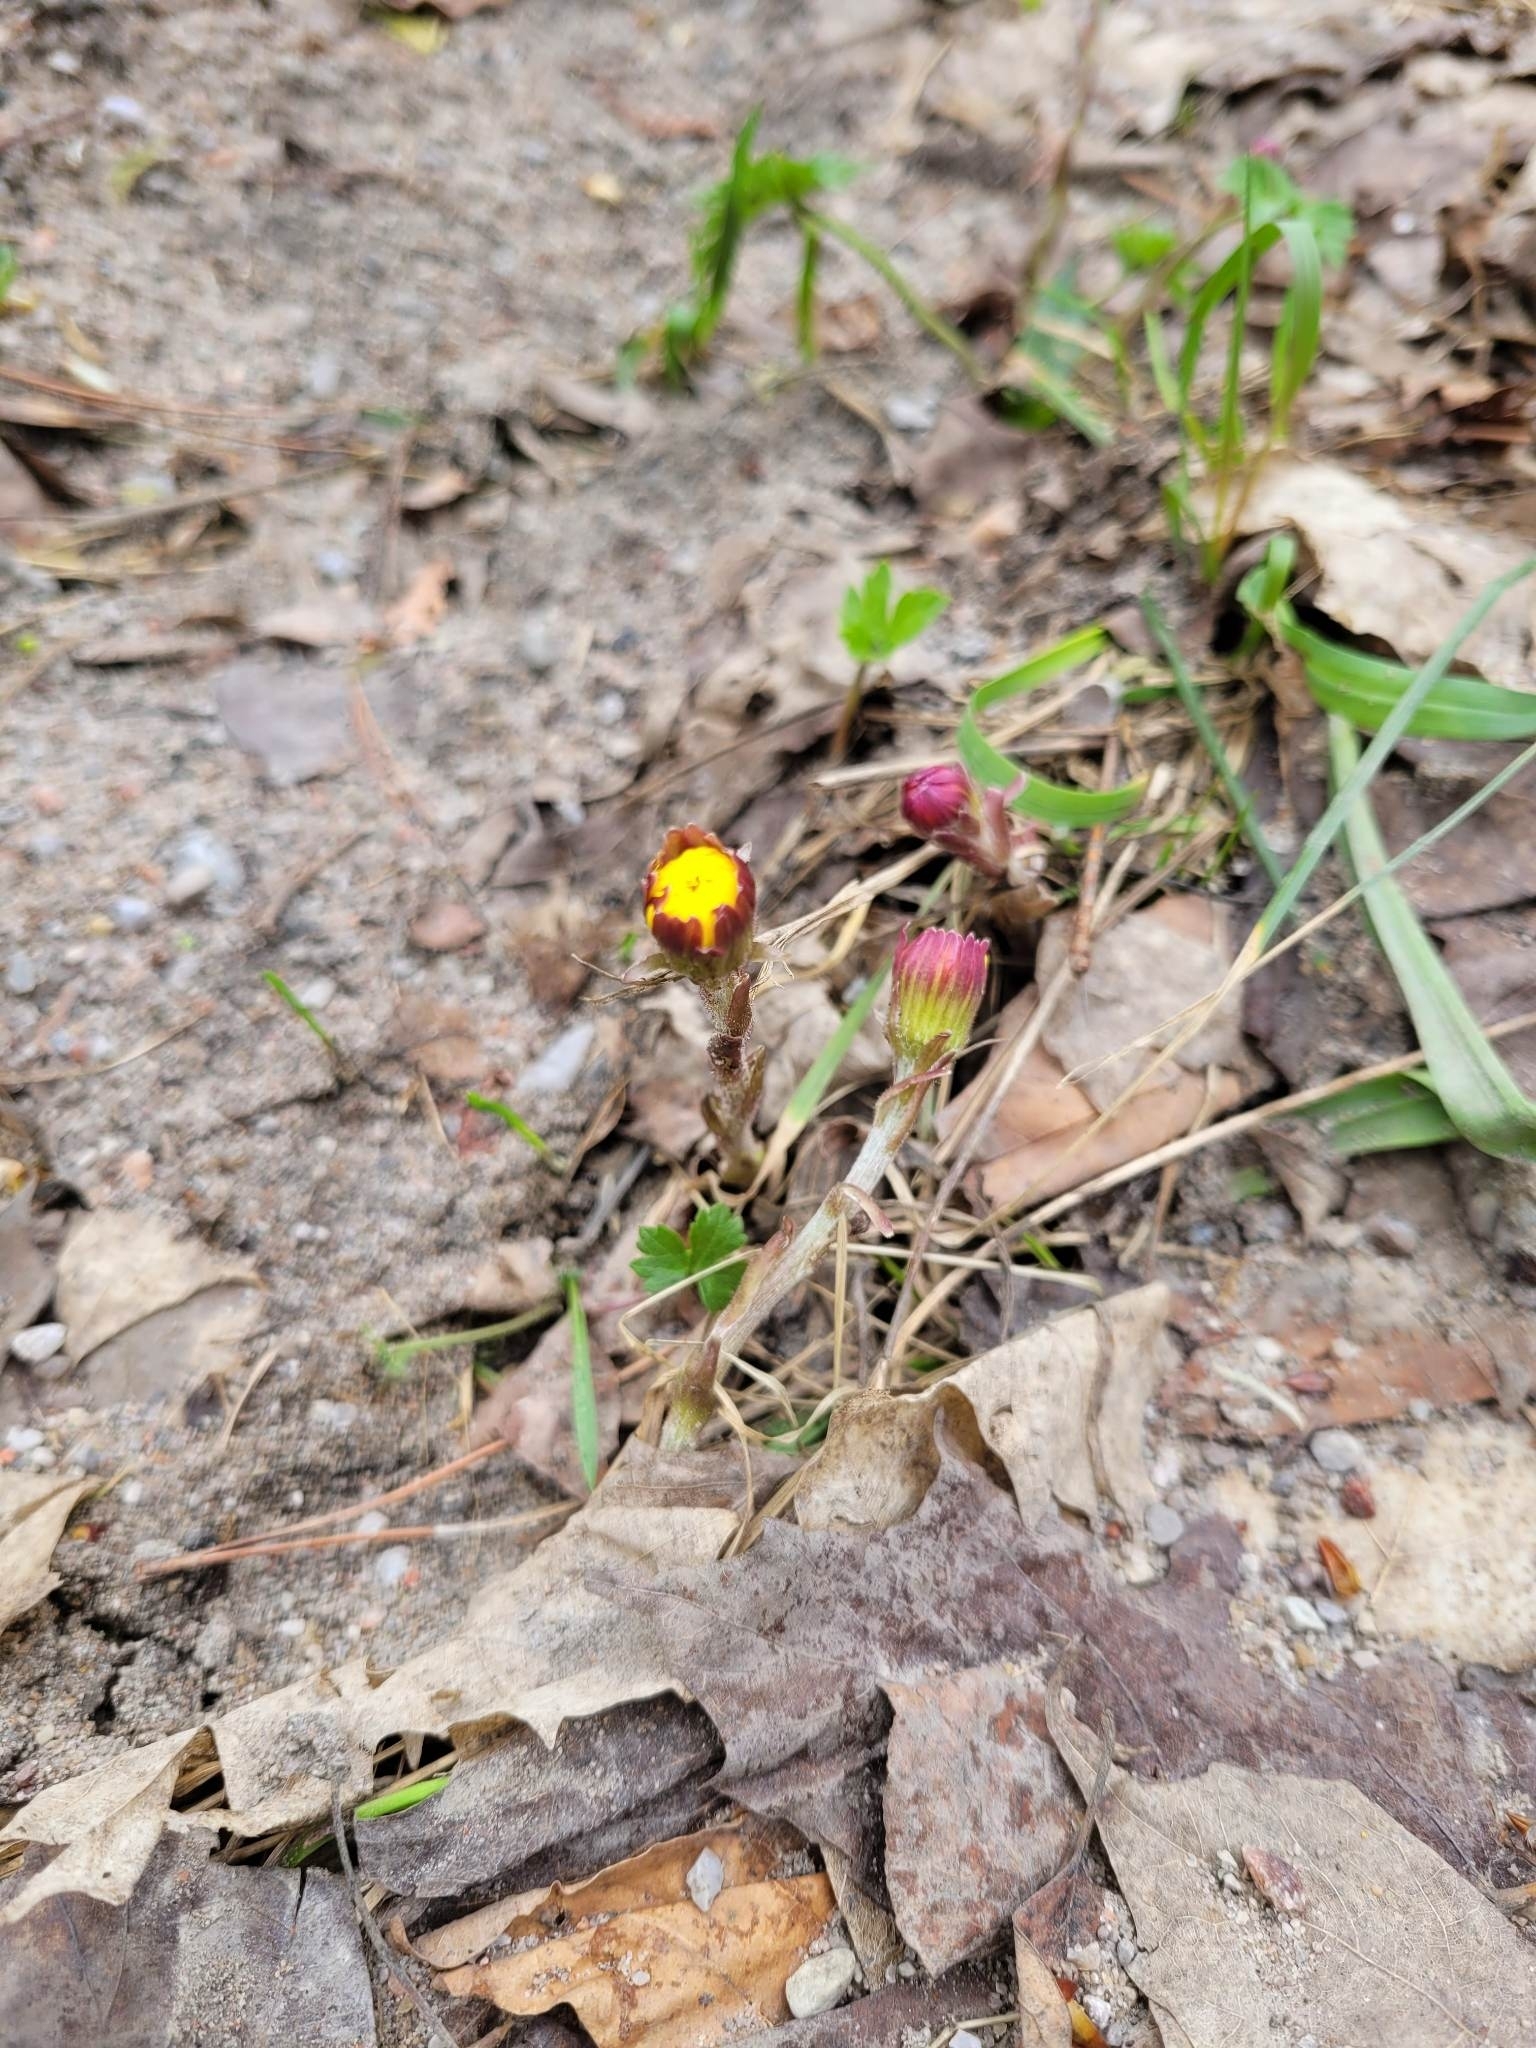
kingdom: Plantae
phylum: Tracheophyta
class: Magnoliopsida
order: Asterales
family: Asteraceae
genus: Tussilago
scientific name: Tussilago farfara
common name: Coltsfoot
